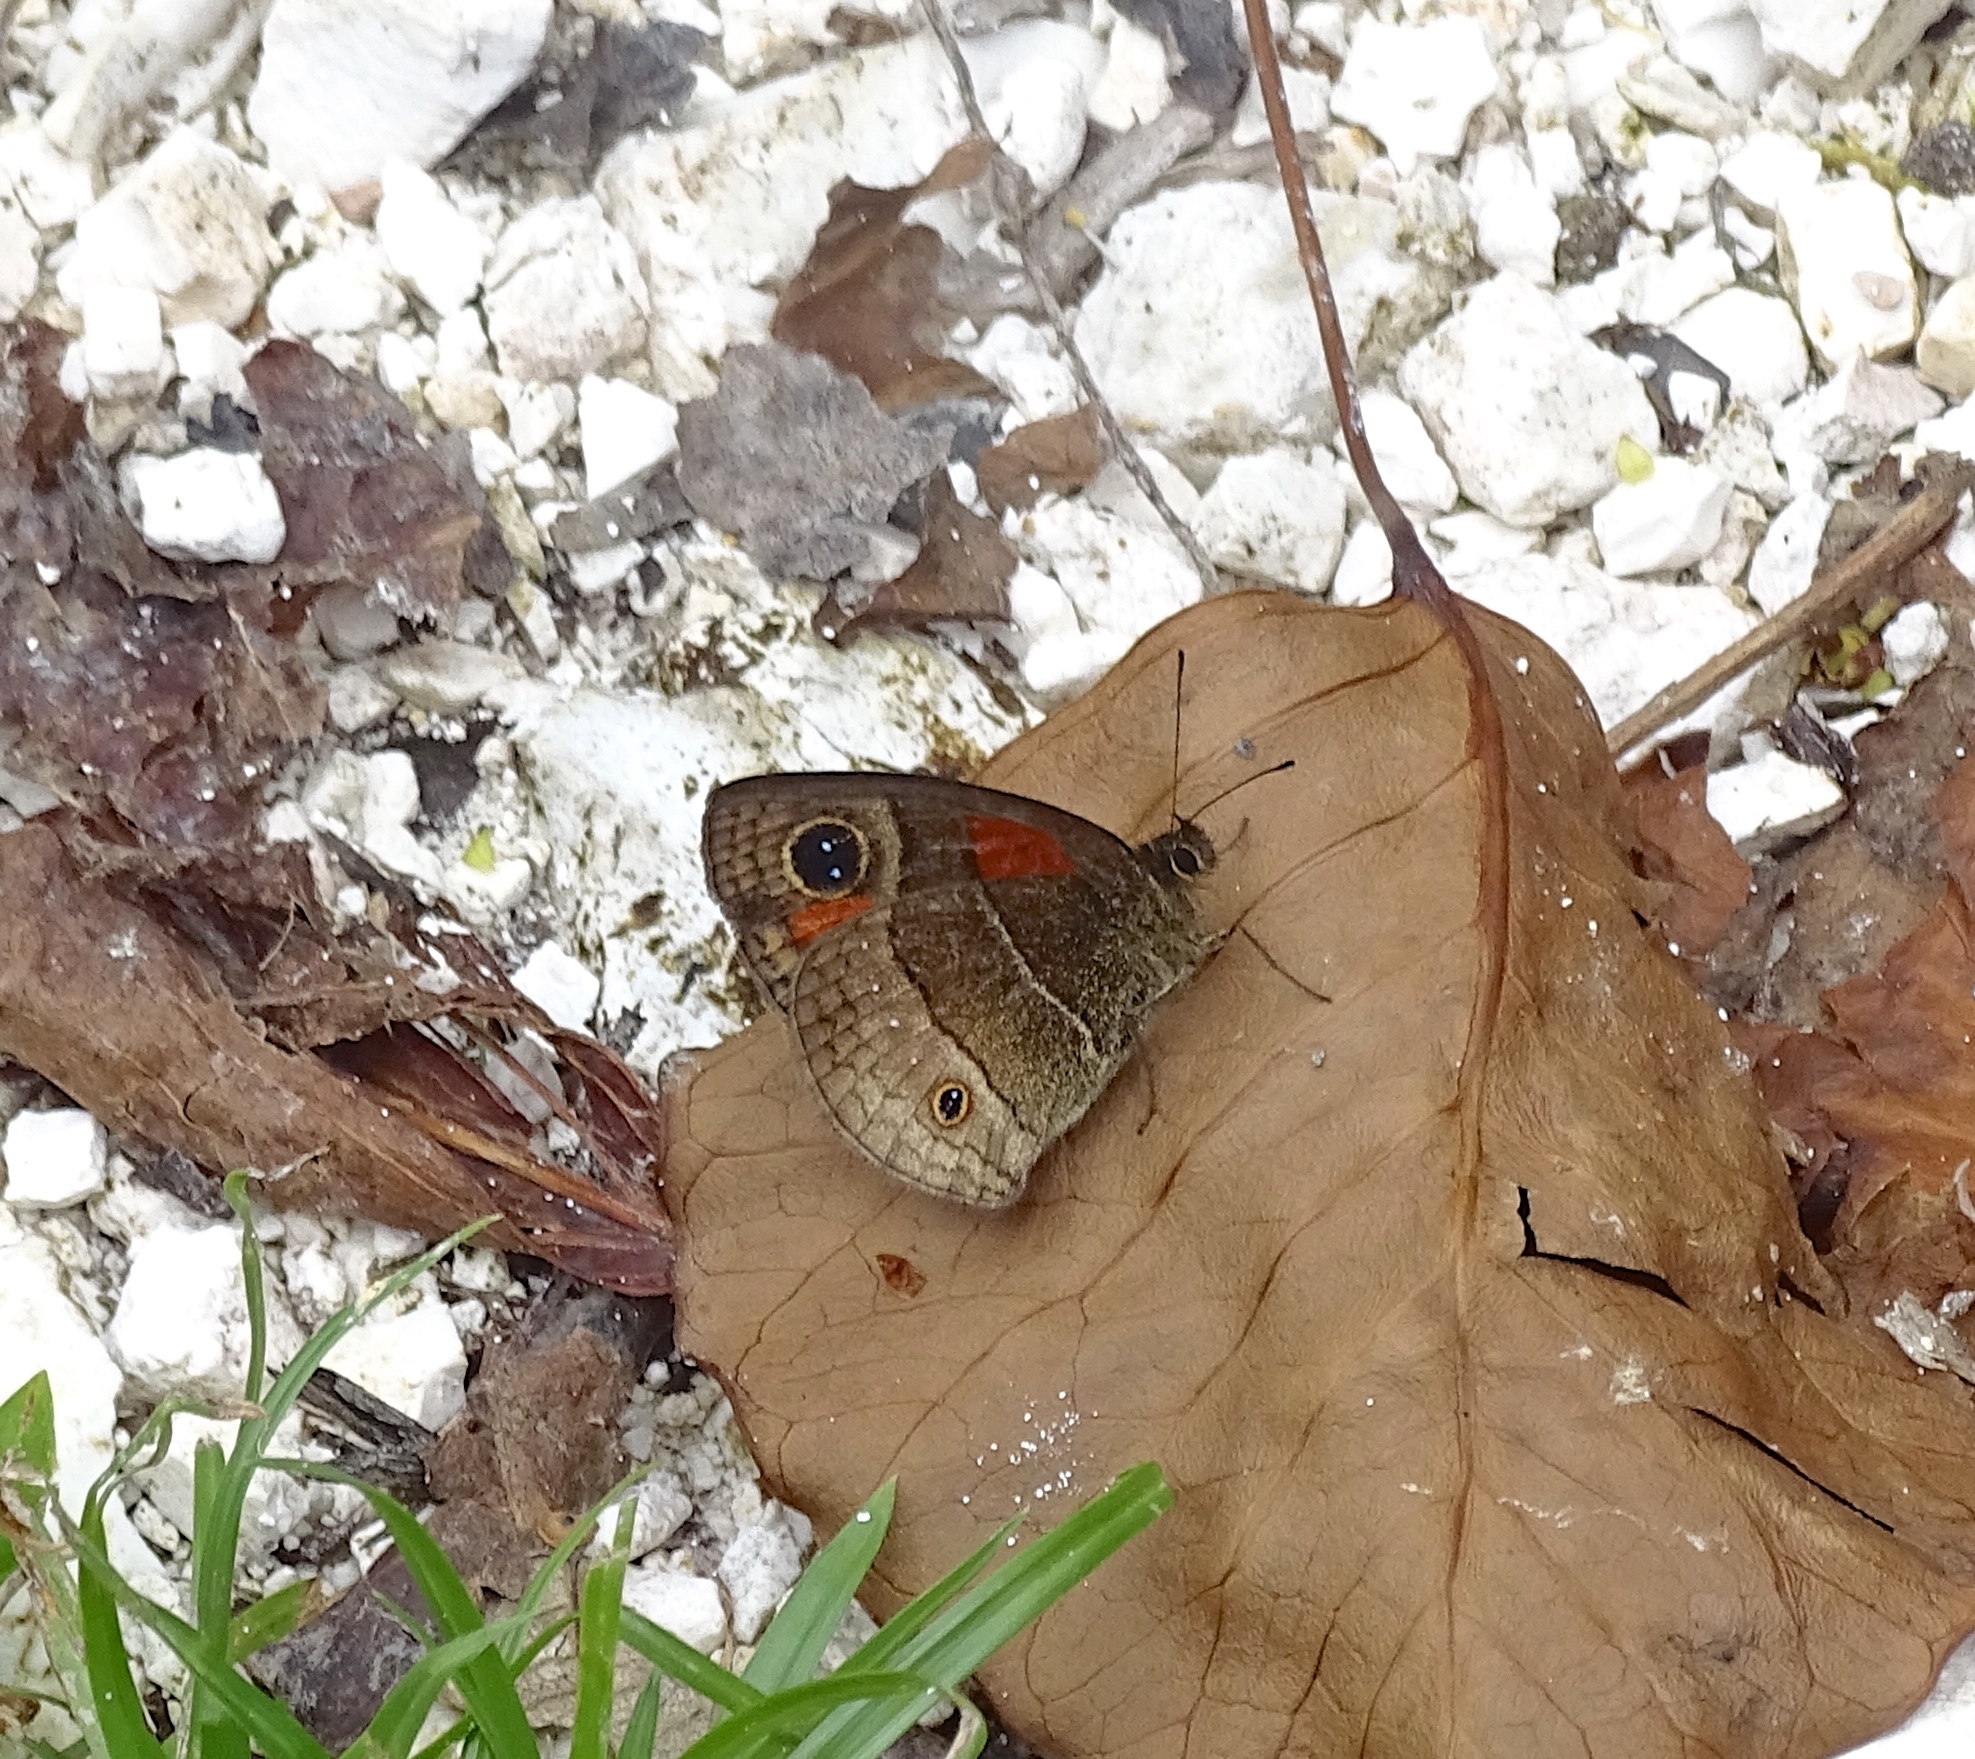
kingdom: Animalia
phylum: Arthropoda
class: Insecta
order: Lepidoptera
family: Nymphalidae
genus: Calisto
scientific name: Calisto confusa
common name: Confused calisto
